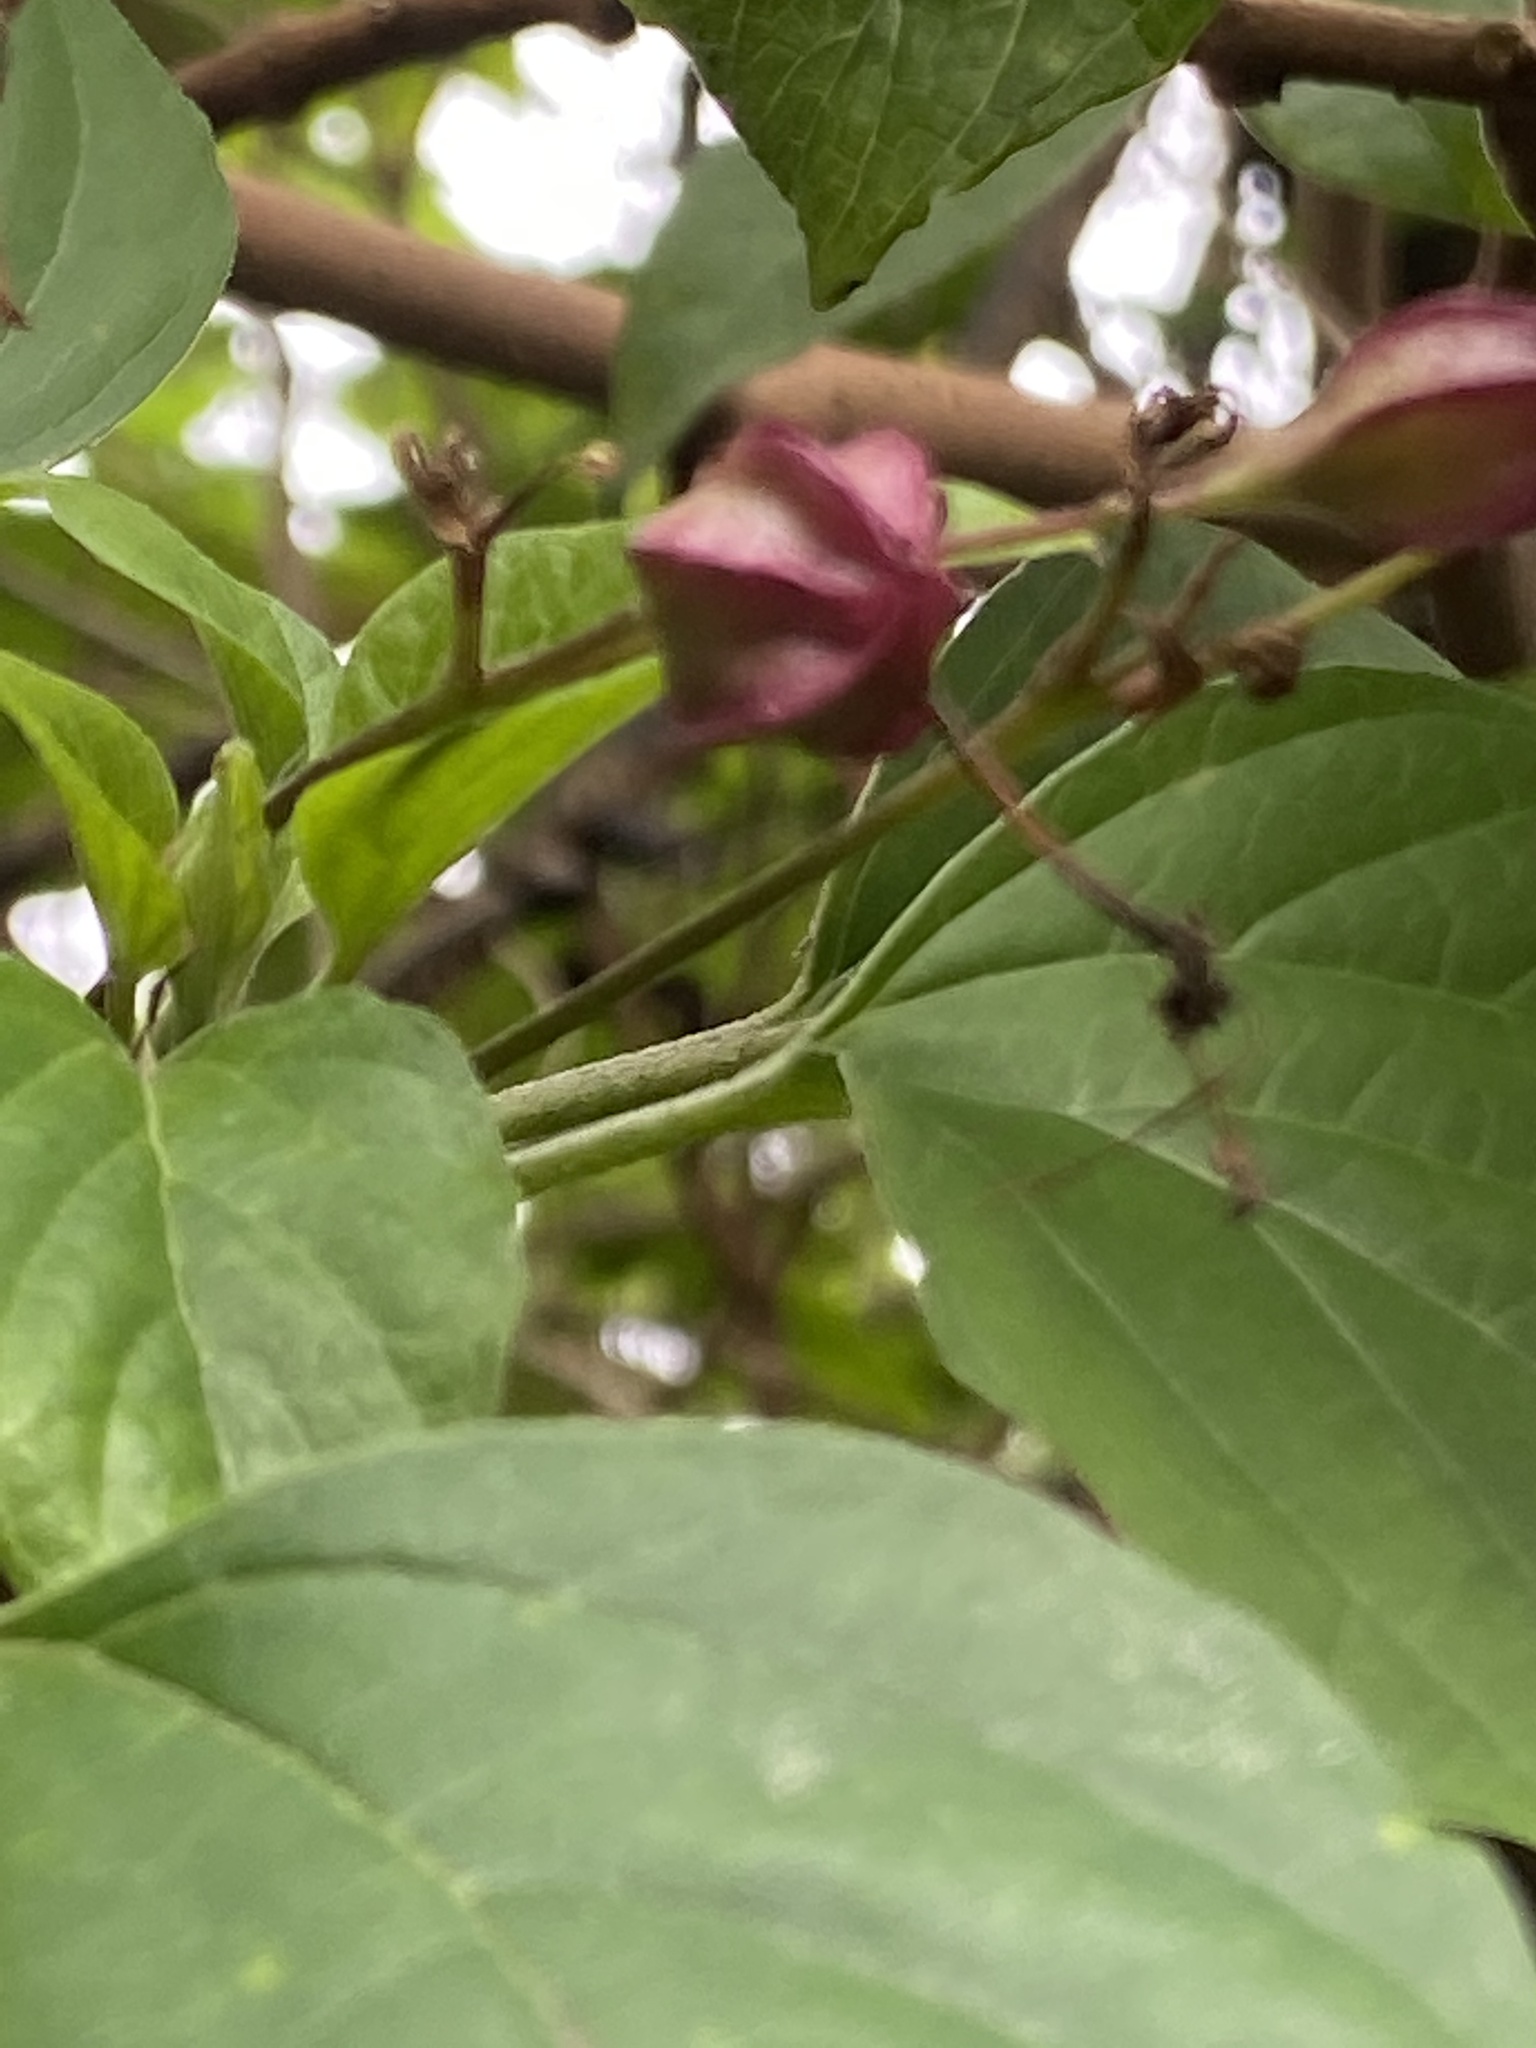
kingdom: Plantae
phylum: Tracheophyta
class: Magnoliopsida
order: Lamiales
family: Lamiaceae
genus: Clerodendrum
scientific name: Clerodendrum trichotomum
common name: Harlequin glorybower
